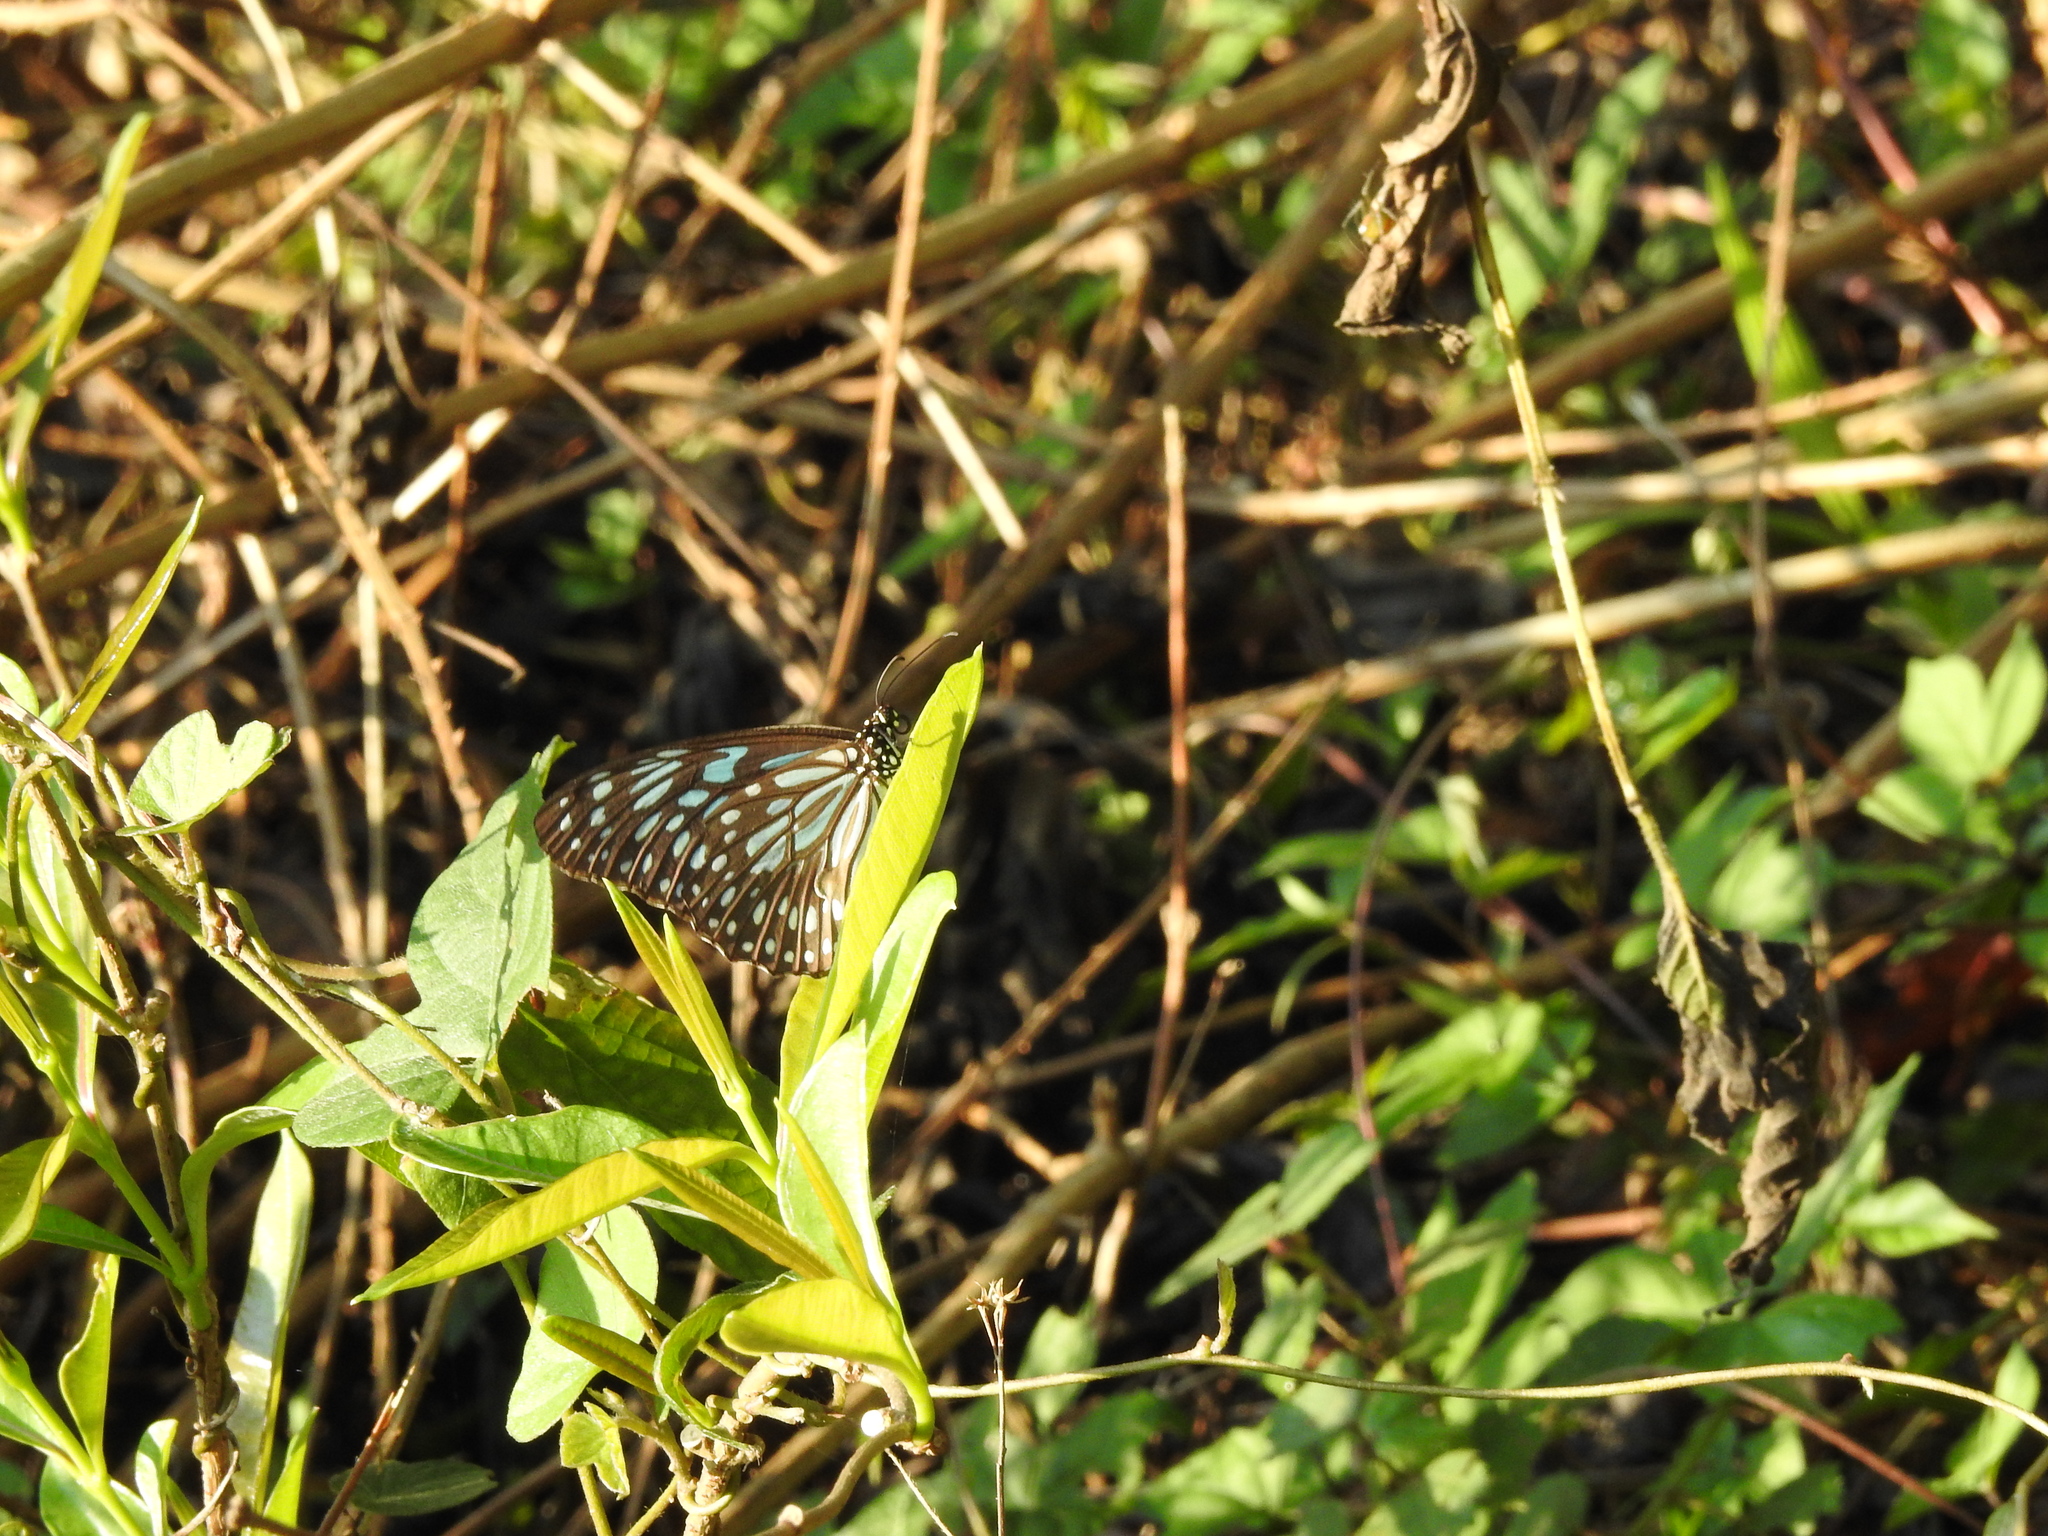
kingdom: Animalia
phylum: Arthropoda
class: Insecta
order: Lepidoptera
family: Nymphalidae
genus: Tirumala
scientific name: Tirumala septentrionis
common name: Dark blue tiger butterfly
